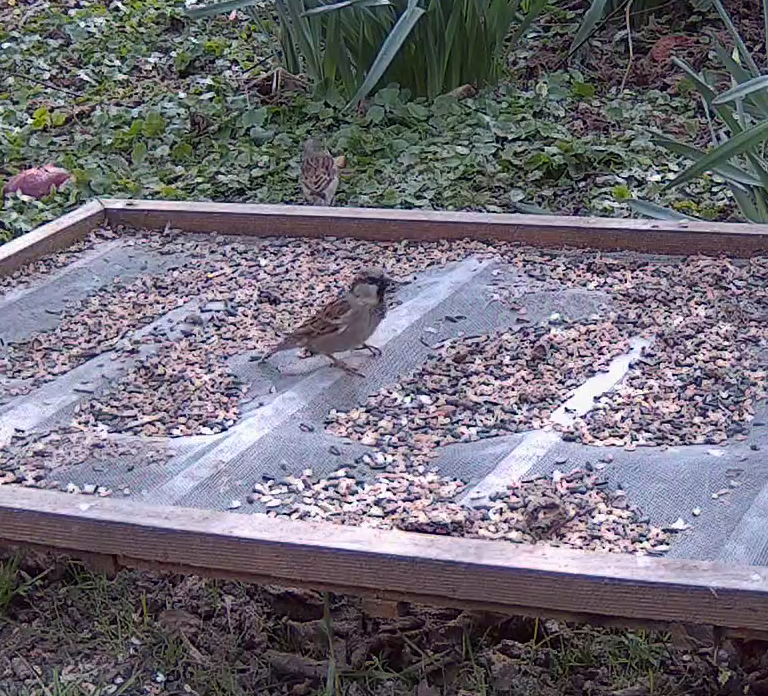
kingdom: Animalia
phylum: Chordata
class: Aves
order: Passeriformes
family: Passeridae
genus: Passer
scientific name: Passer domesticus
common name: House sparrow
